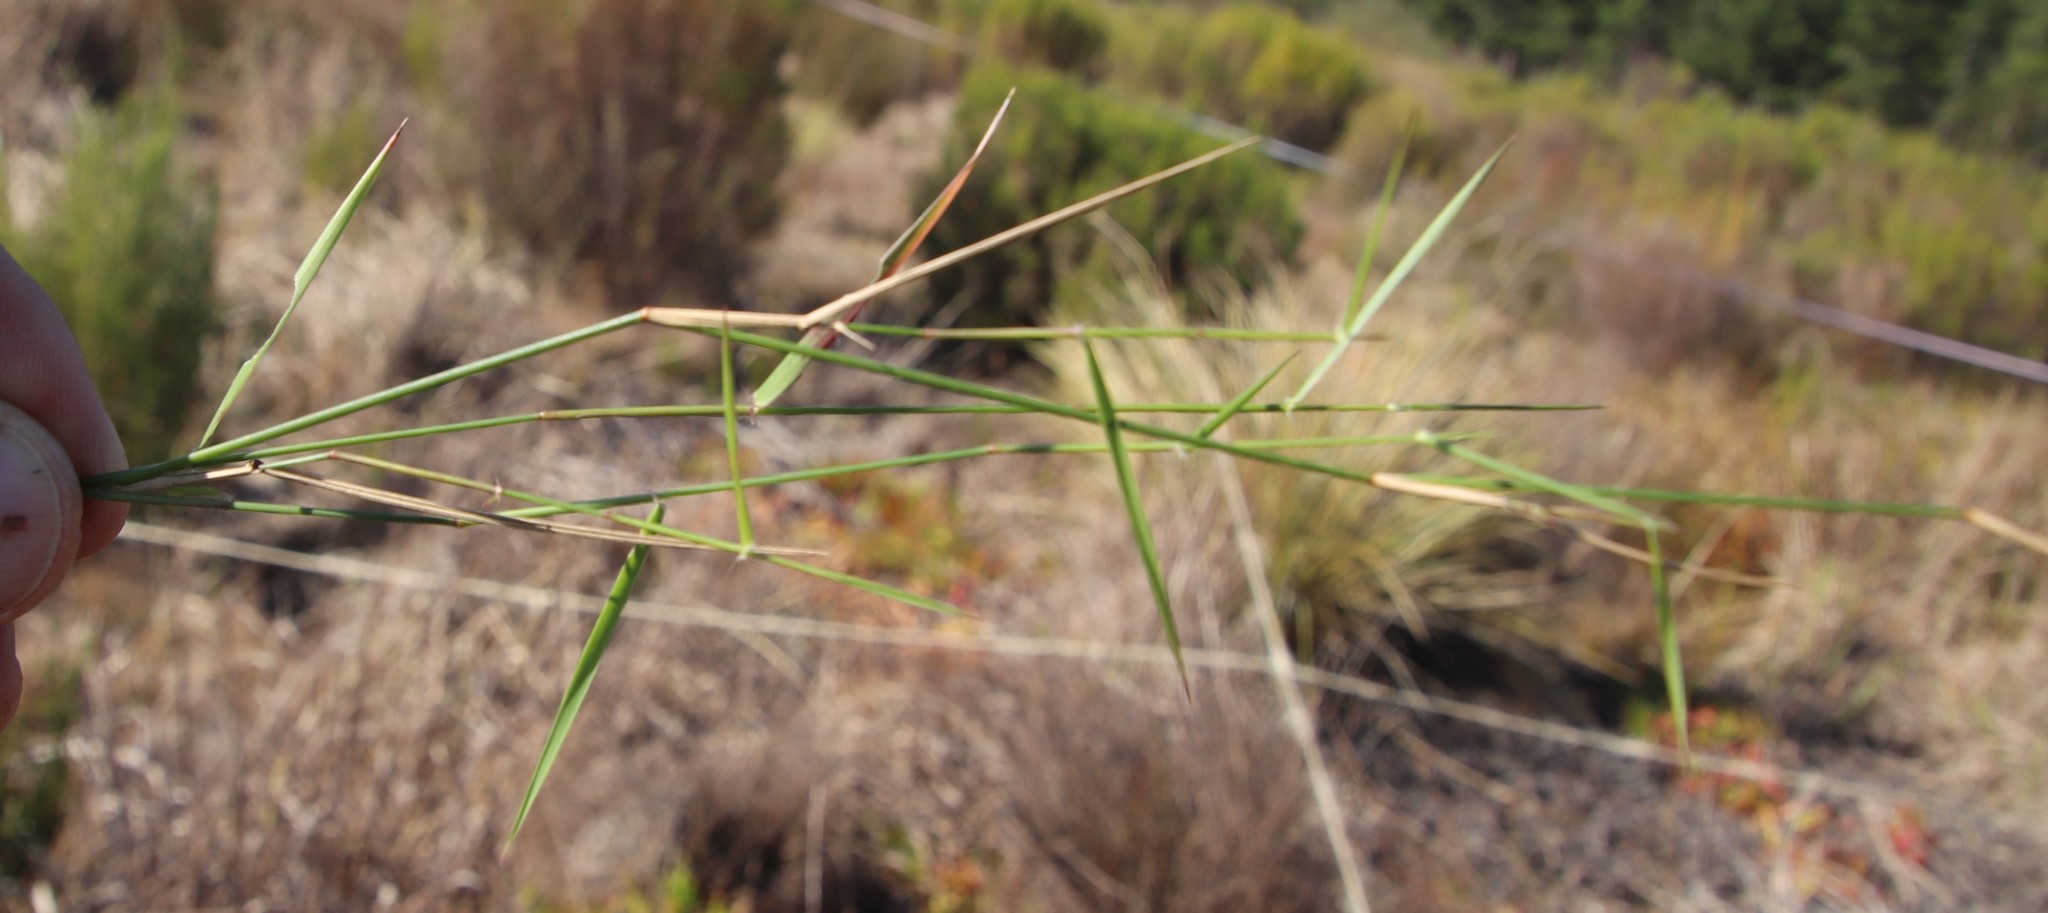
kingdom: Plantae
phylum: Tracheophyta
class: Liliopsida
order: Poales
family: Poaceae
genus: Pentameris
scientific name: Pentameris pallida
